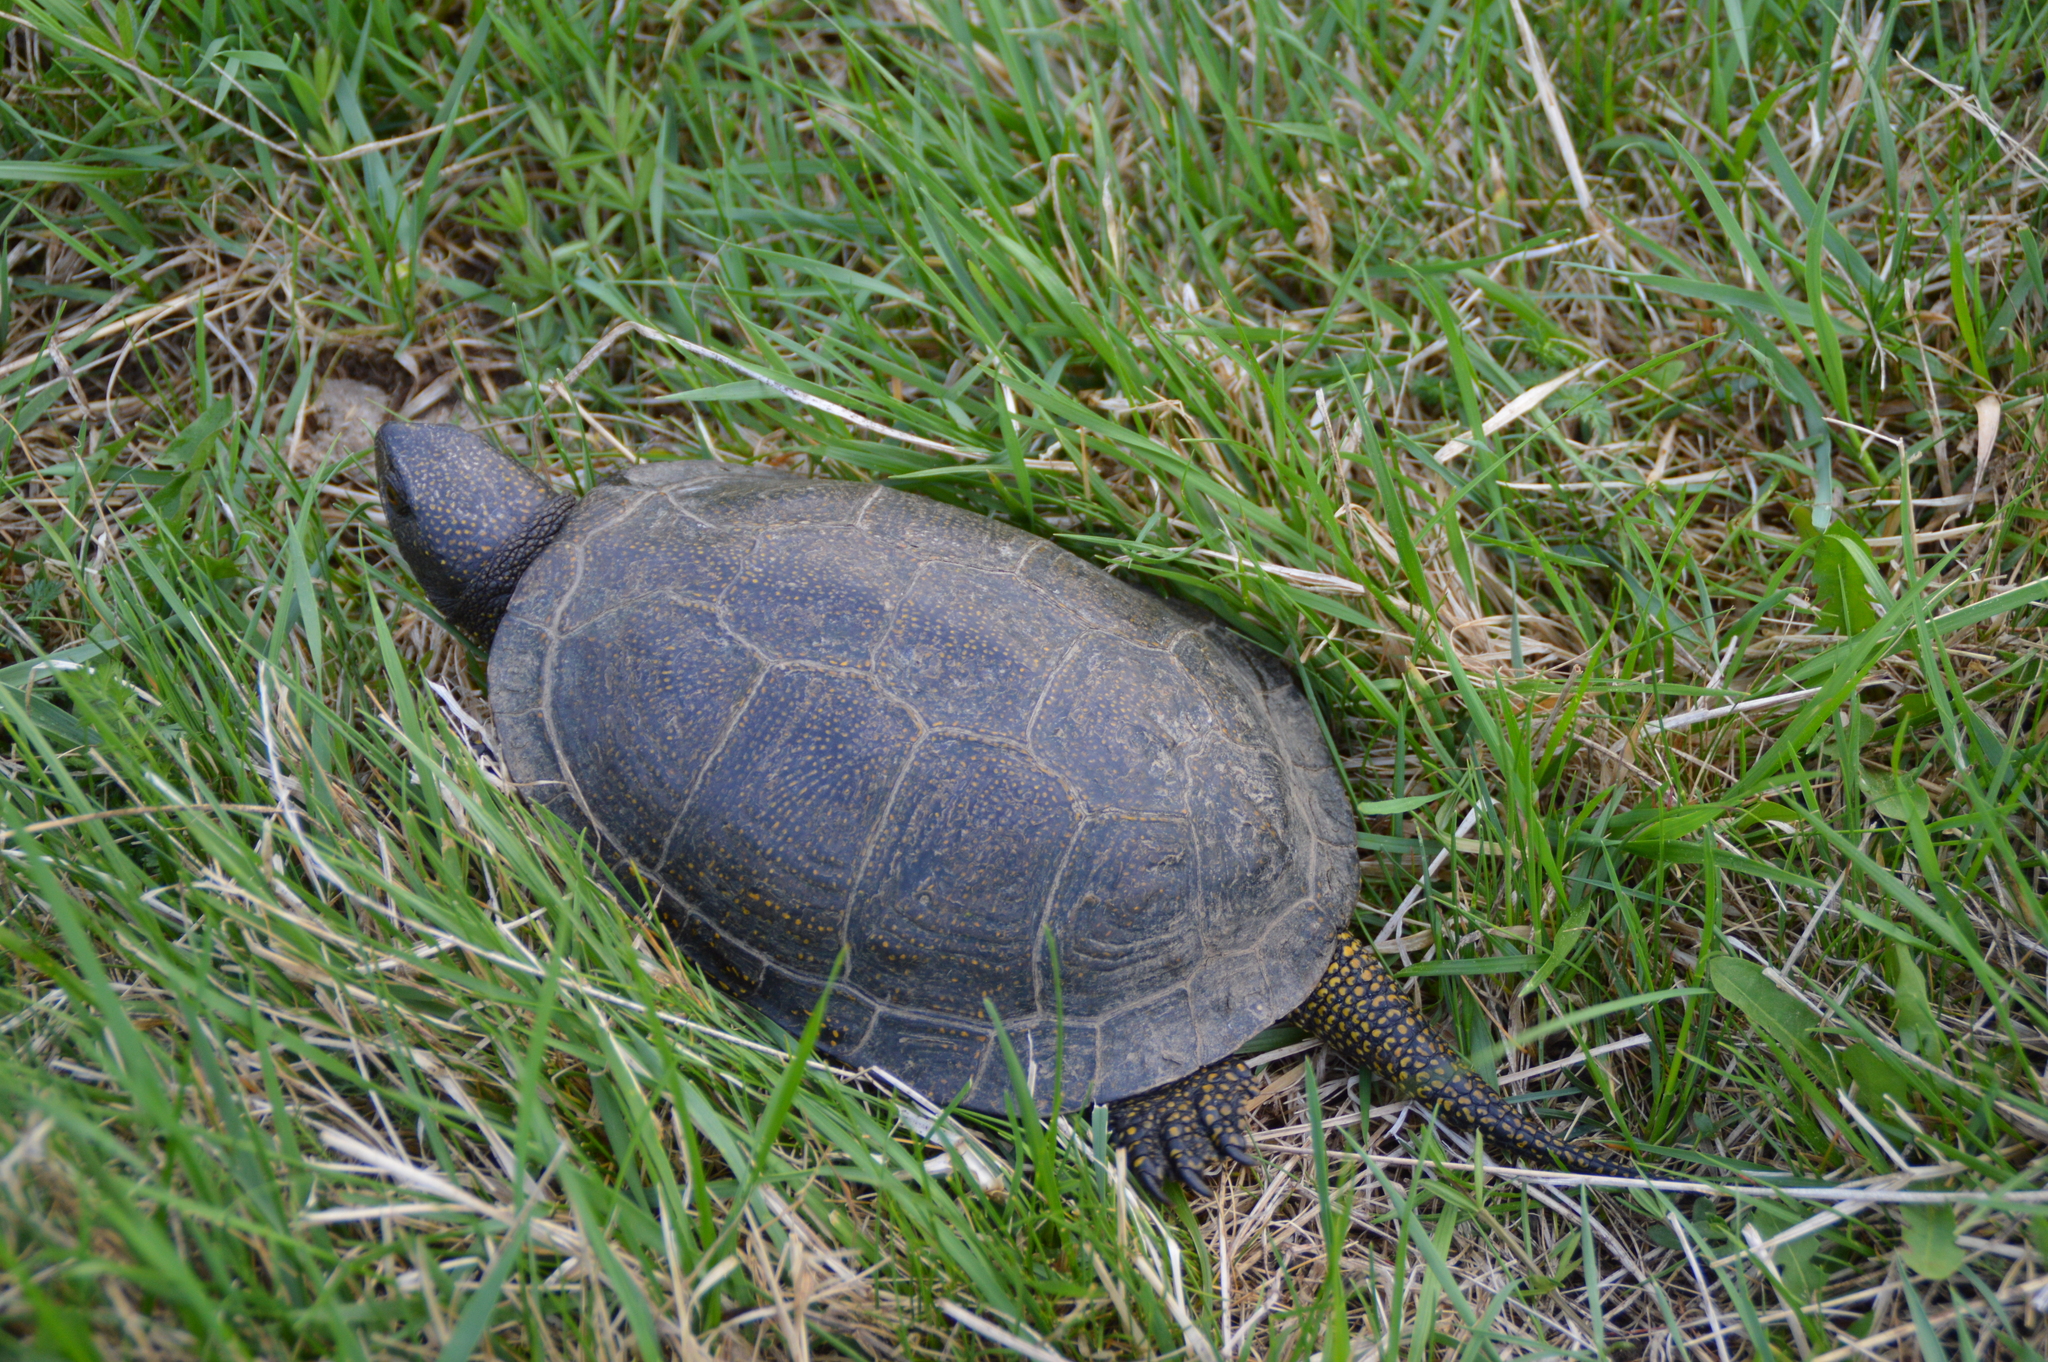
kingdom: Animalia
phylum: Chordata
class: Testudines
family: Emydidae
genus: Emys
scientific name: Emys orbicularis
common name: European pond turtle
